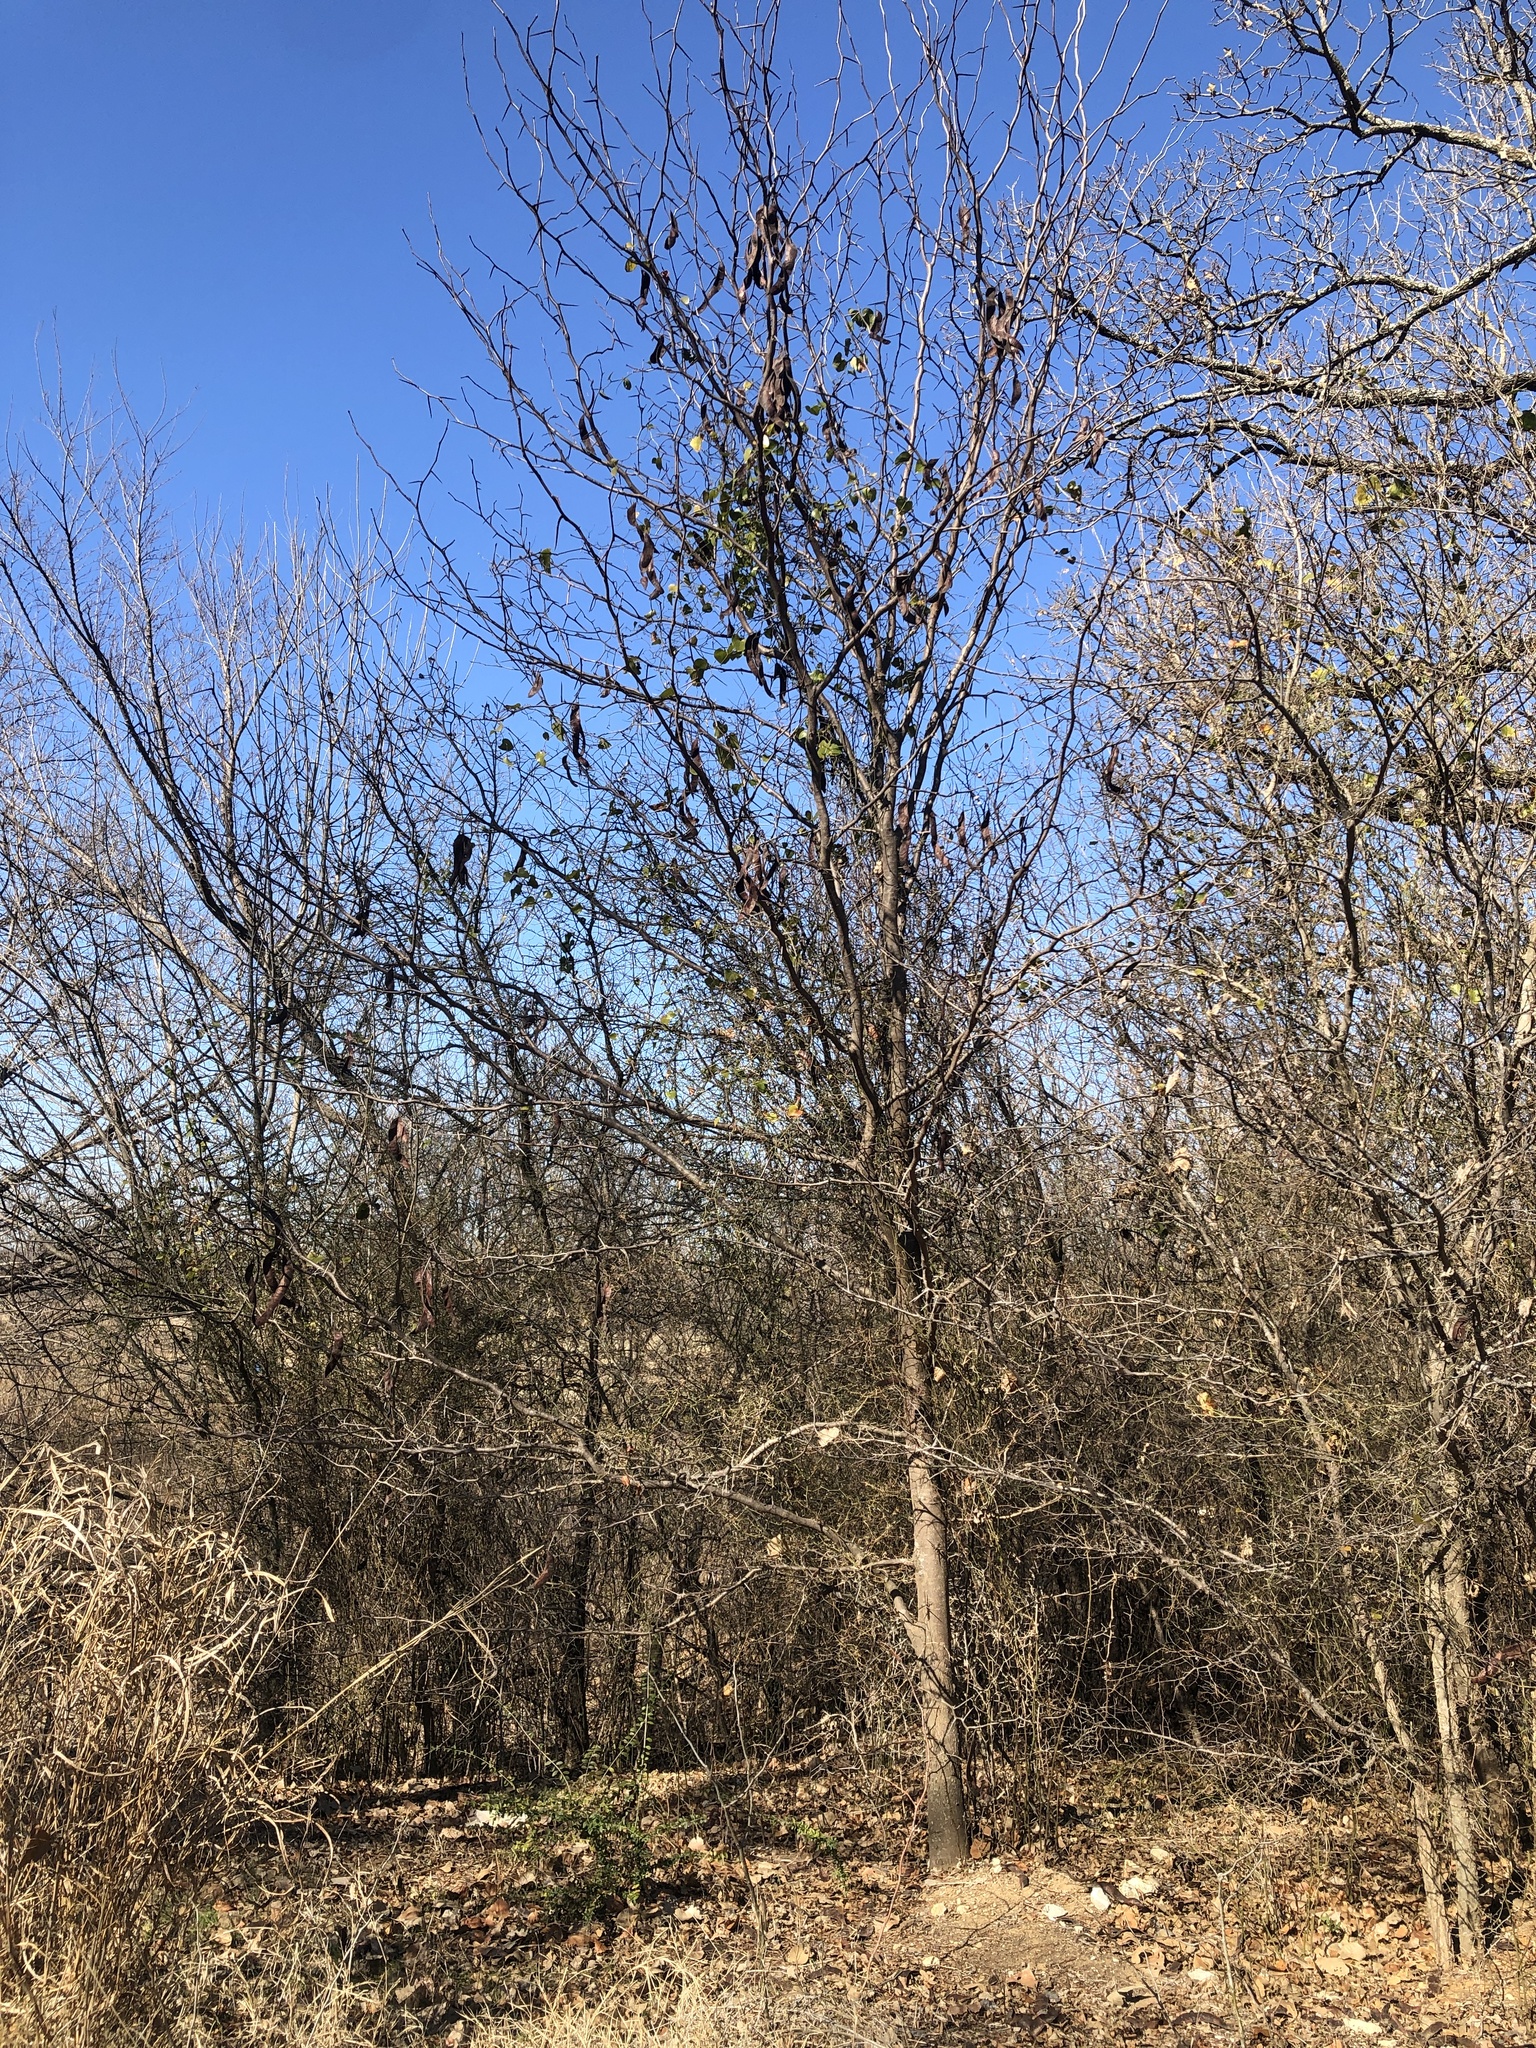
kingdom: Plantae
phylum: Tracheophyta
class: Magnoliopsida
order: Fabales
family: Fabaceae
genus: Gleditsia
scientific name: Gleditsia triacanthos
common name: Common honeylocust
